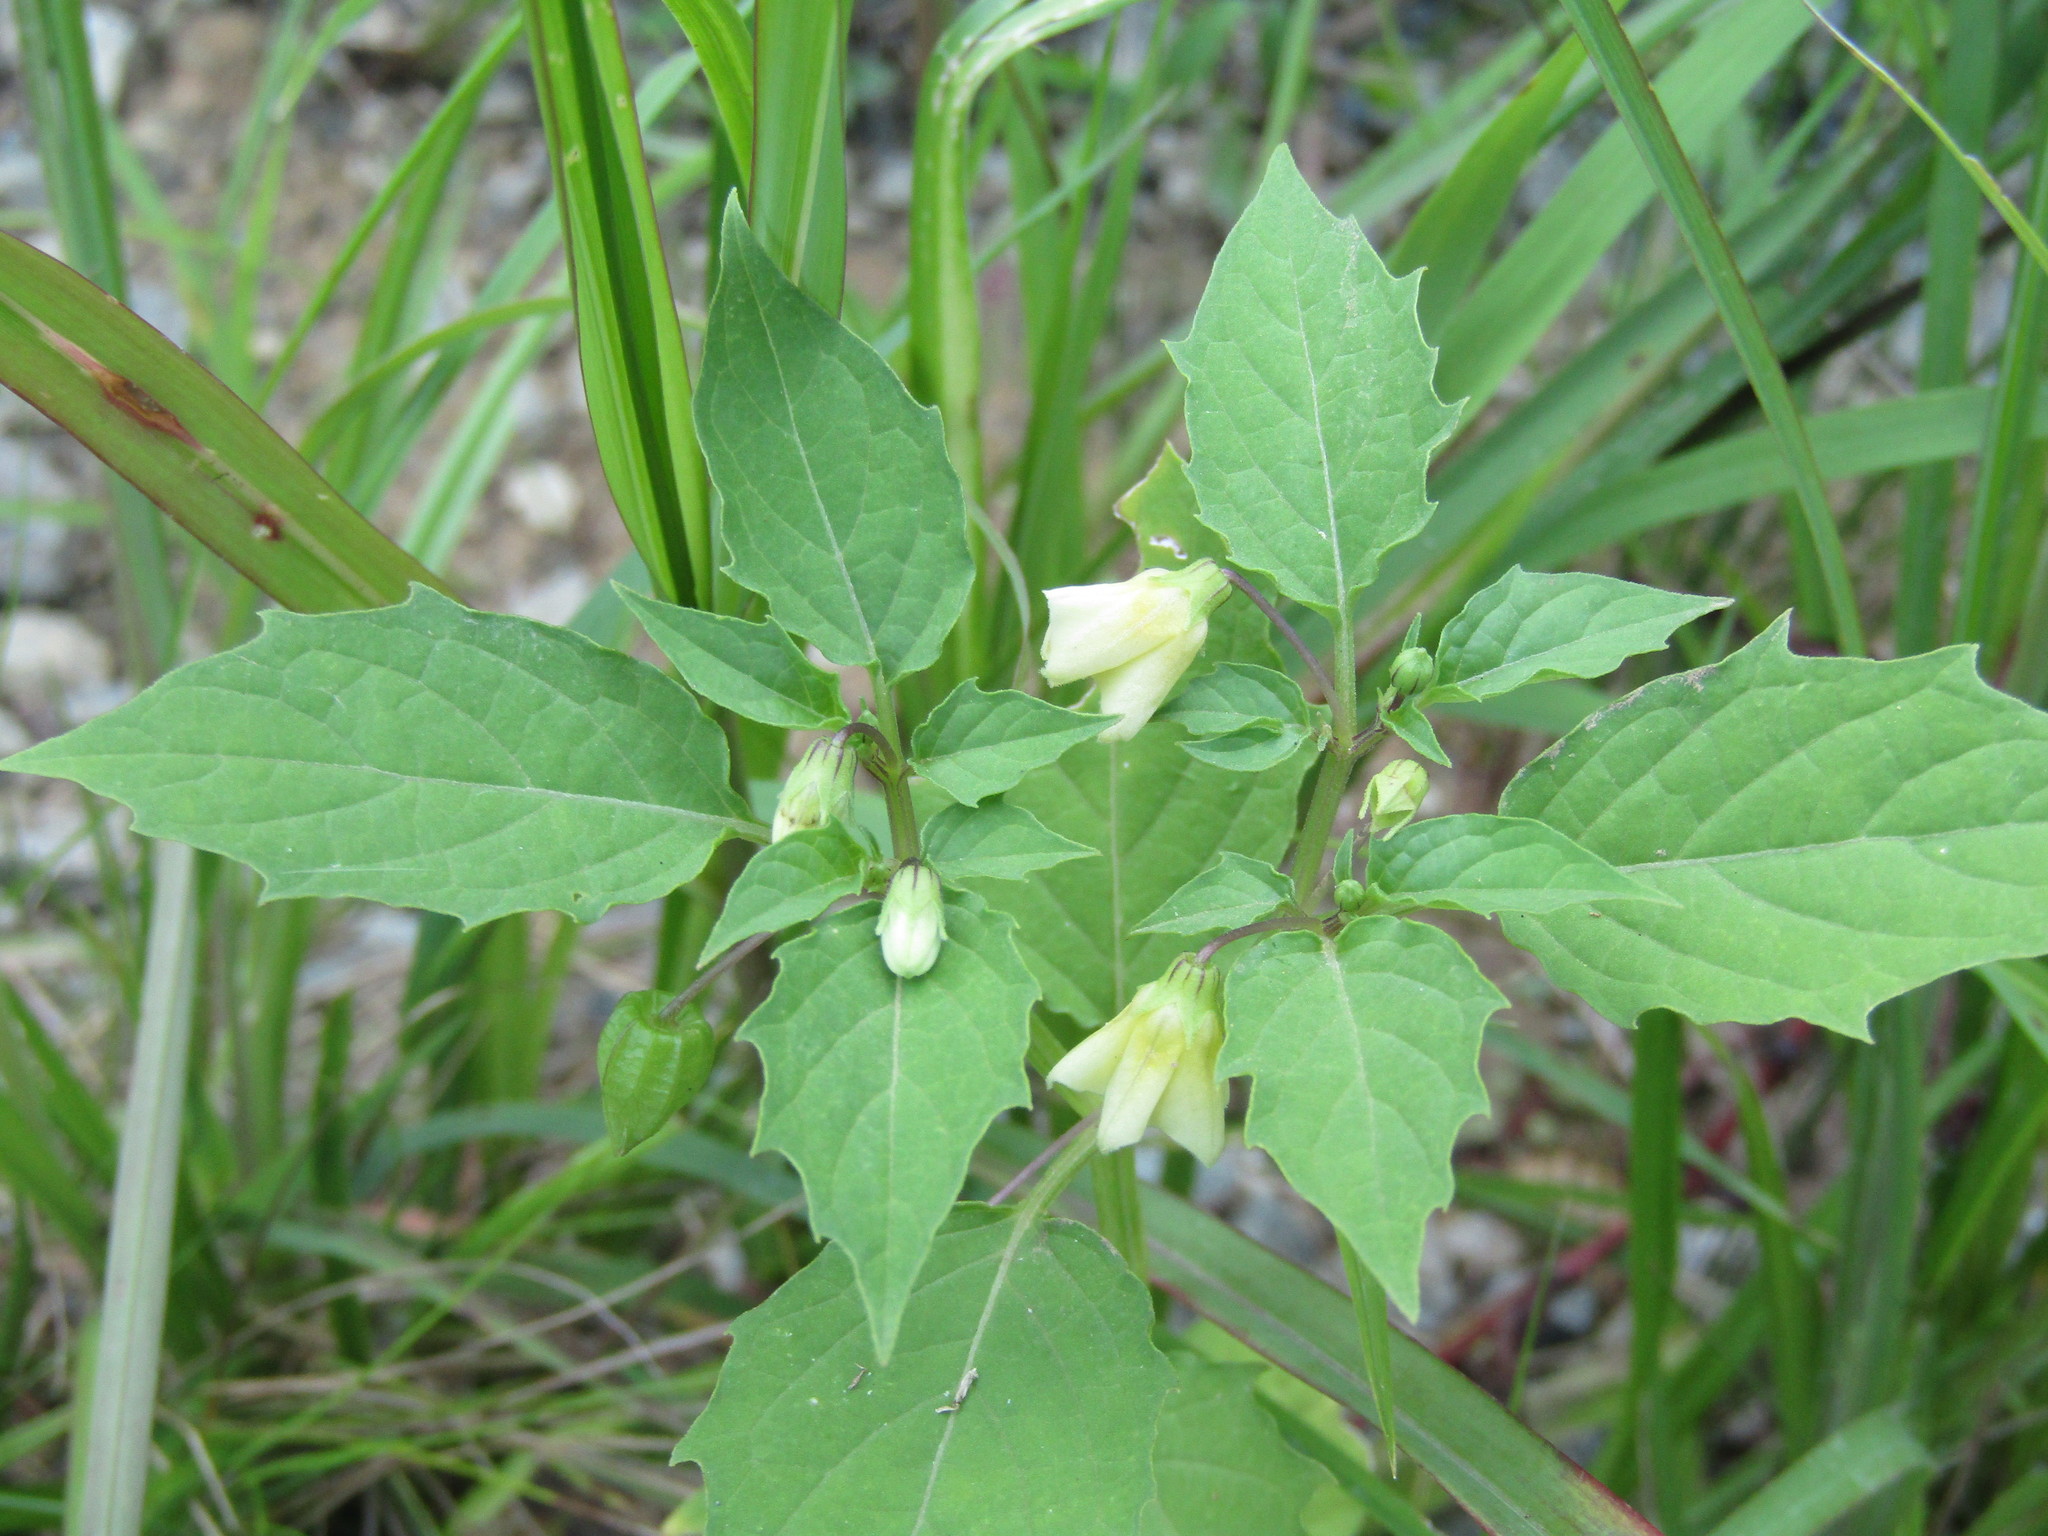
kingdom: Plantae
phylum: Tracheophyta
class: Magnoliopsida
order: Solanales
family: Solanaceae
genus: Physalis
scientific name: Physalis angulata
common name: Angular winter-cherry
